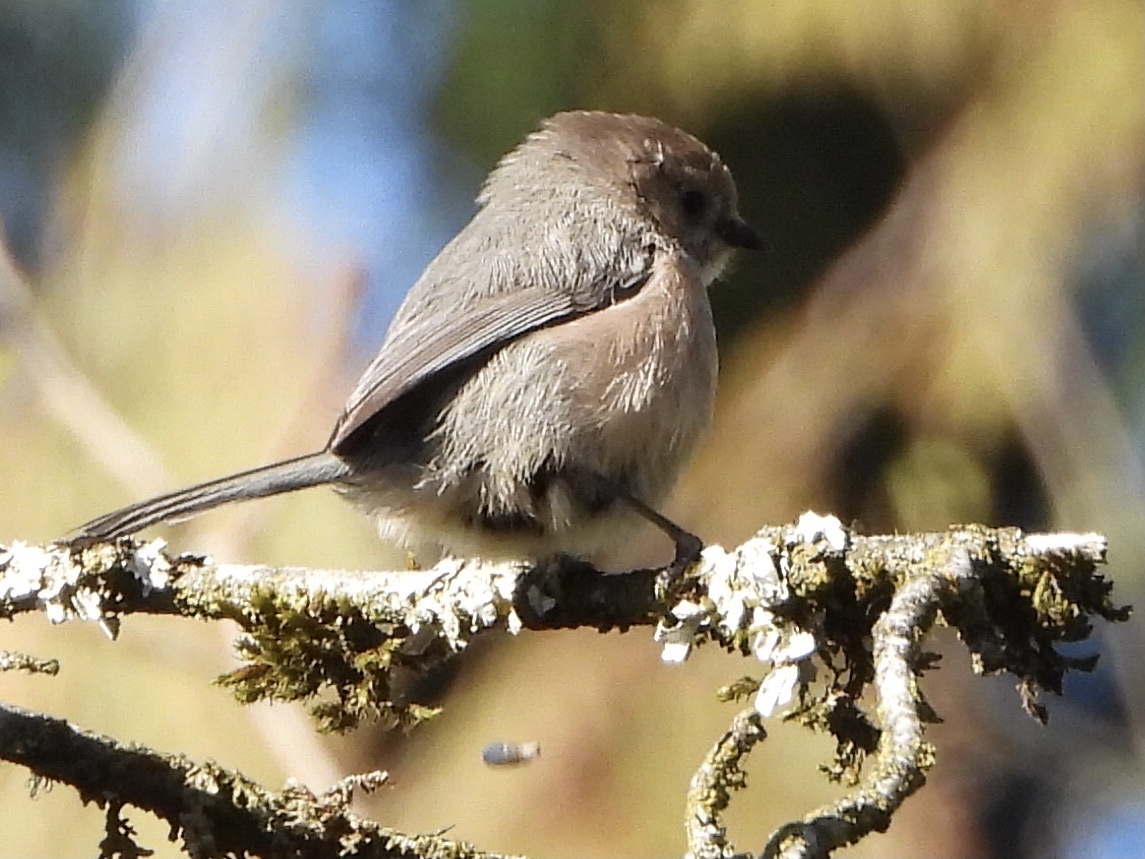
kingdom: Animalia
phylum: Chordata
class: Aves
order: Passeriformes
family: Aegithalidae
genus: Psaltriparus
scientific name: Psaltriparus minimus
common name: American bushtit
